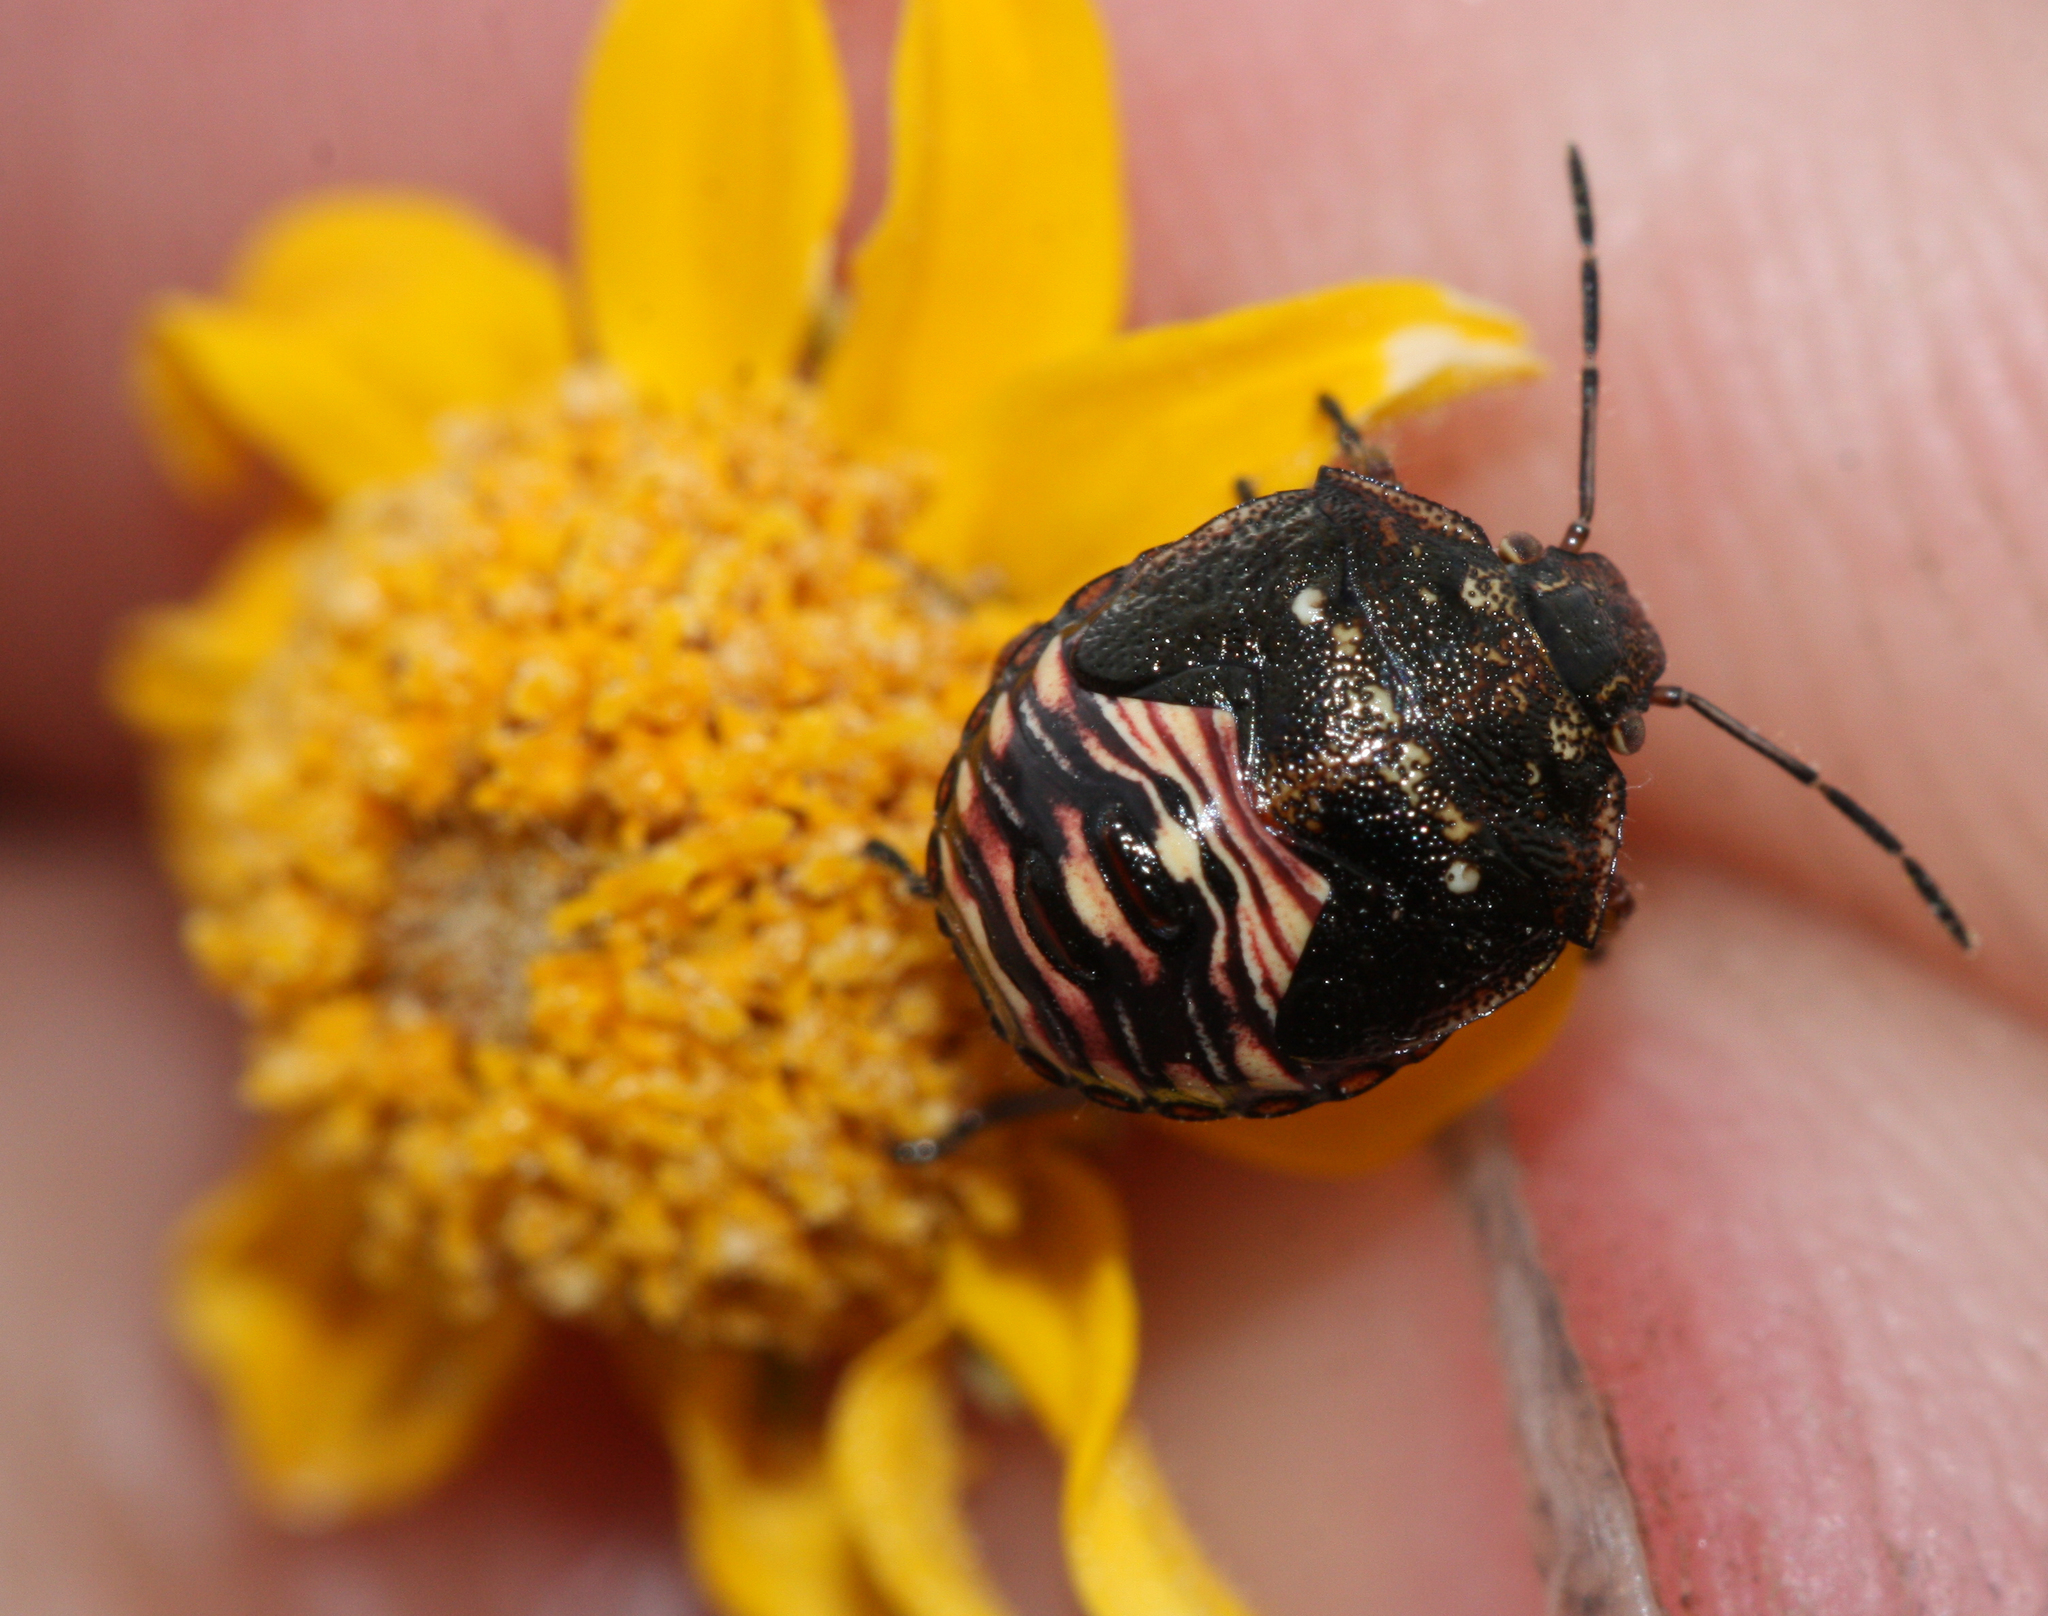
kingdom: Animalia
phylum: Arthropoda
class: Insecta
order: Hemiptera
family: Pentatomidae
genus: Thyanta
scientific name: Thyanta accerra
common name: Stink bug
